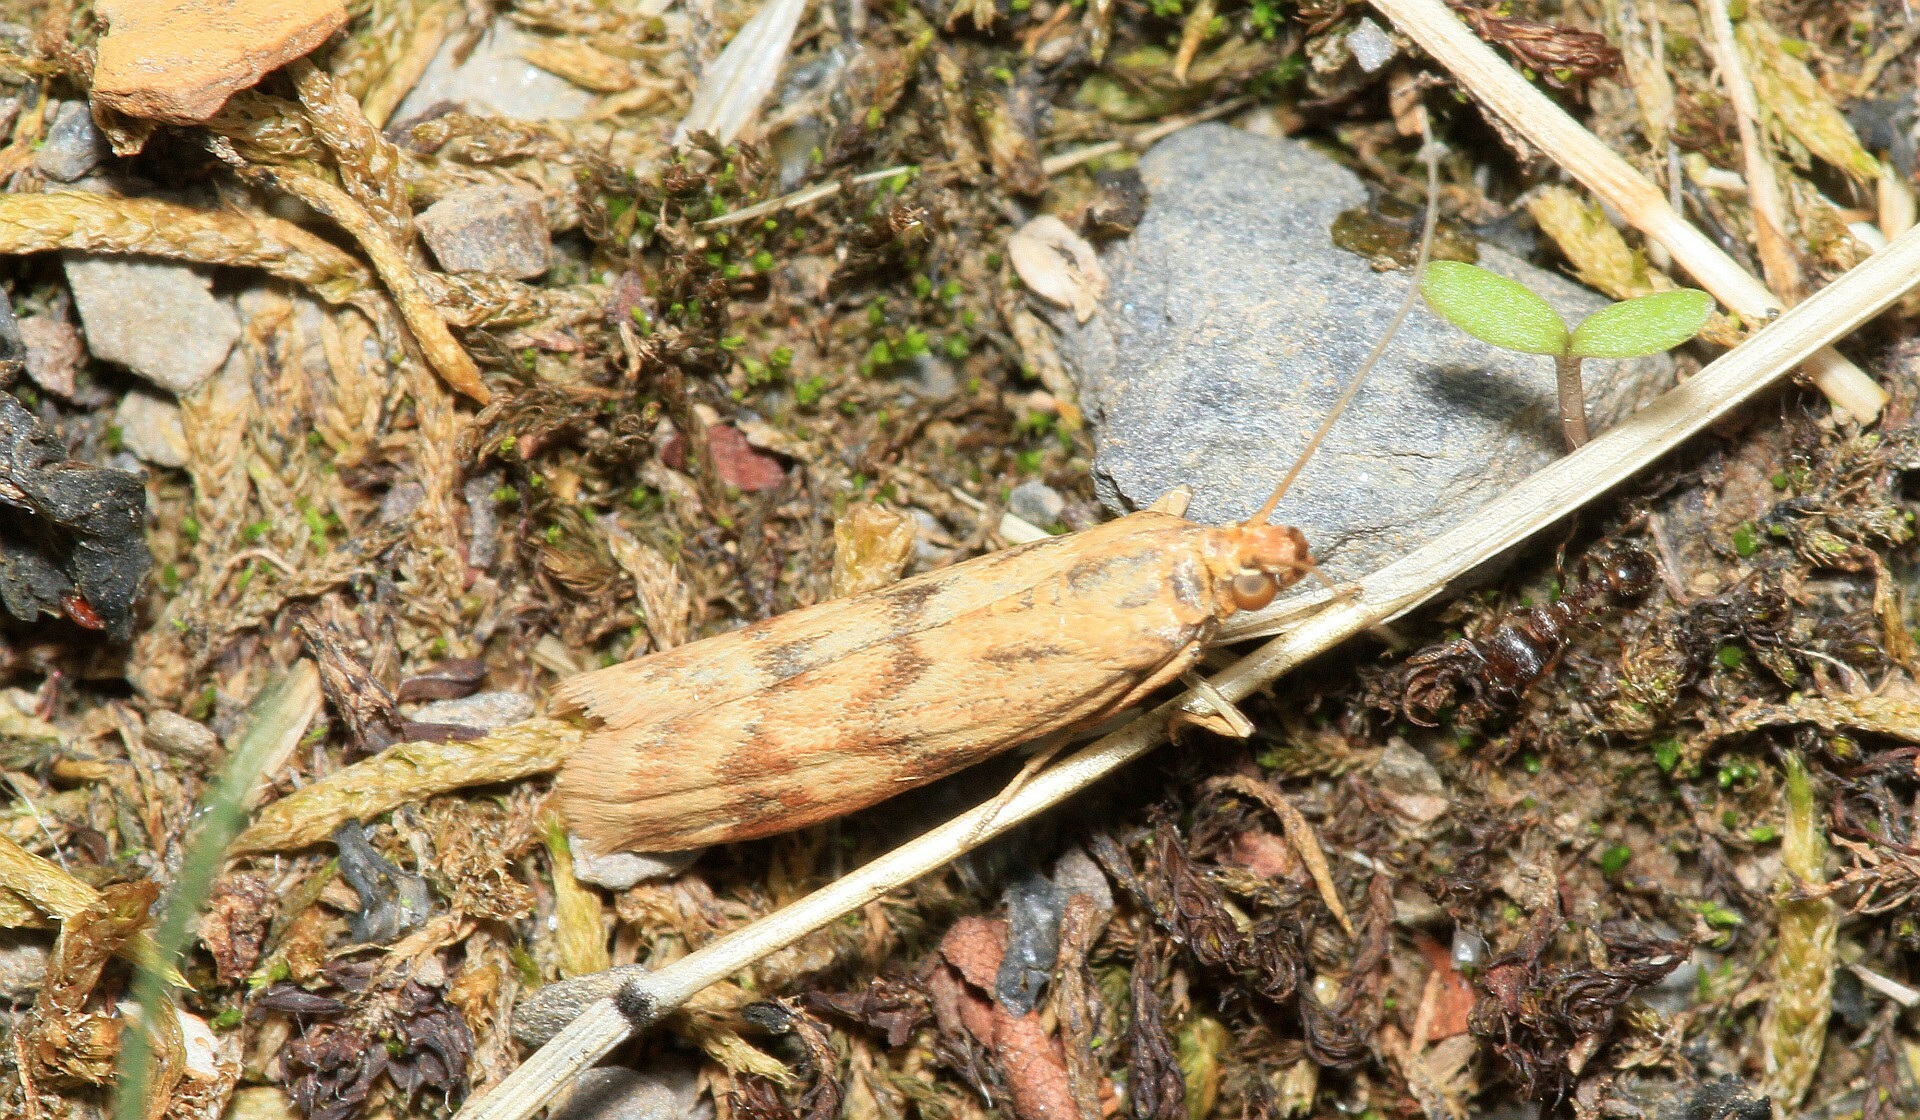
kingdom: Animalia
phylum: Arthropoda
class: Insecta
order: Lepidoptera
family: Pyralidae
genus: Homoeosoma
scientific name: Homoeosoma sinuella
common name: Twin-barred knot-horn
